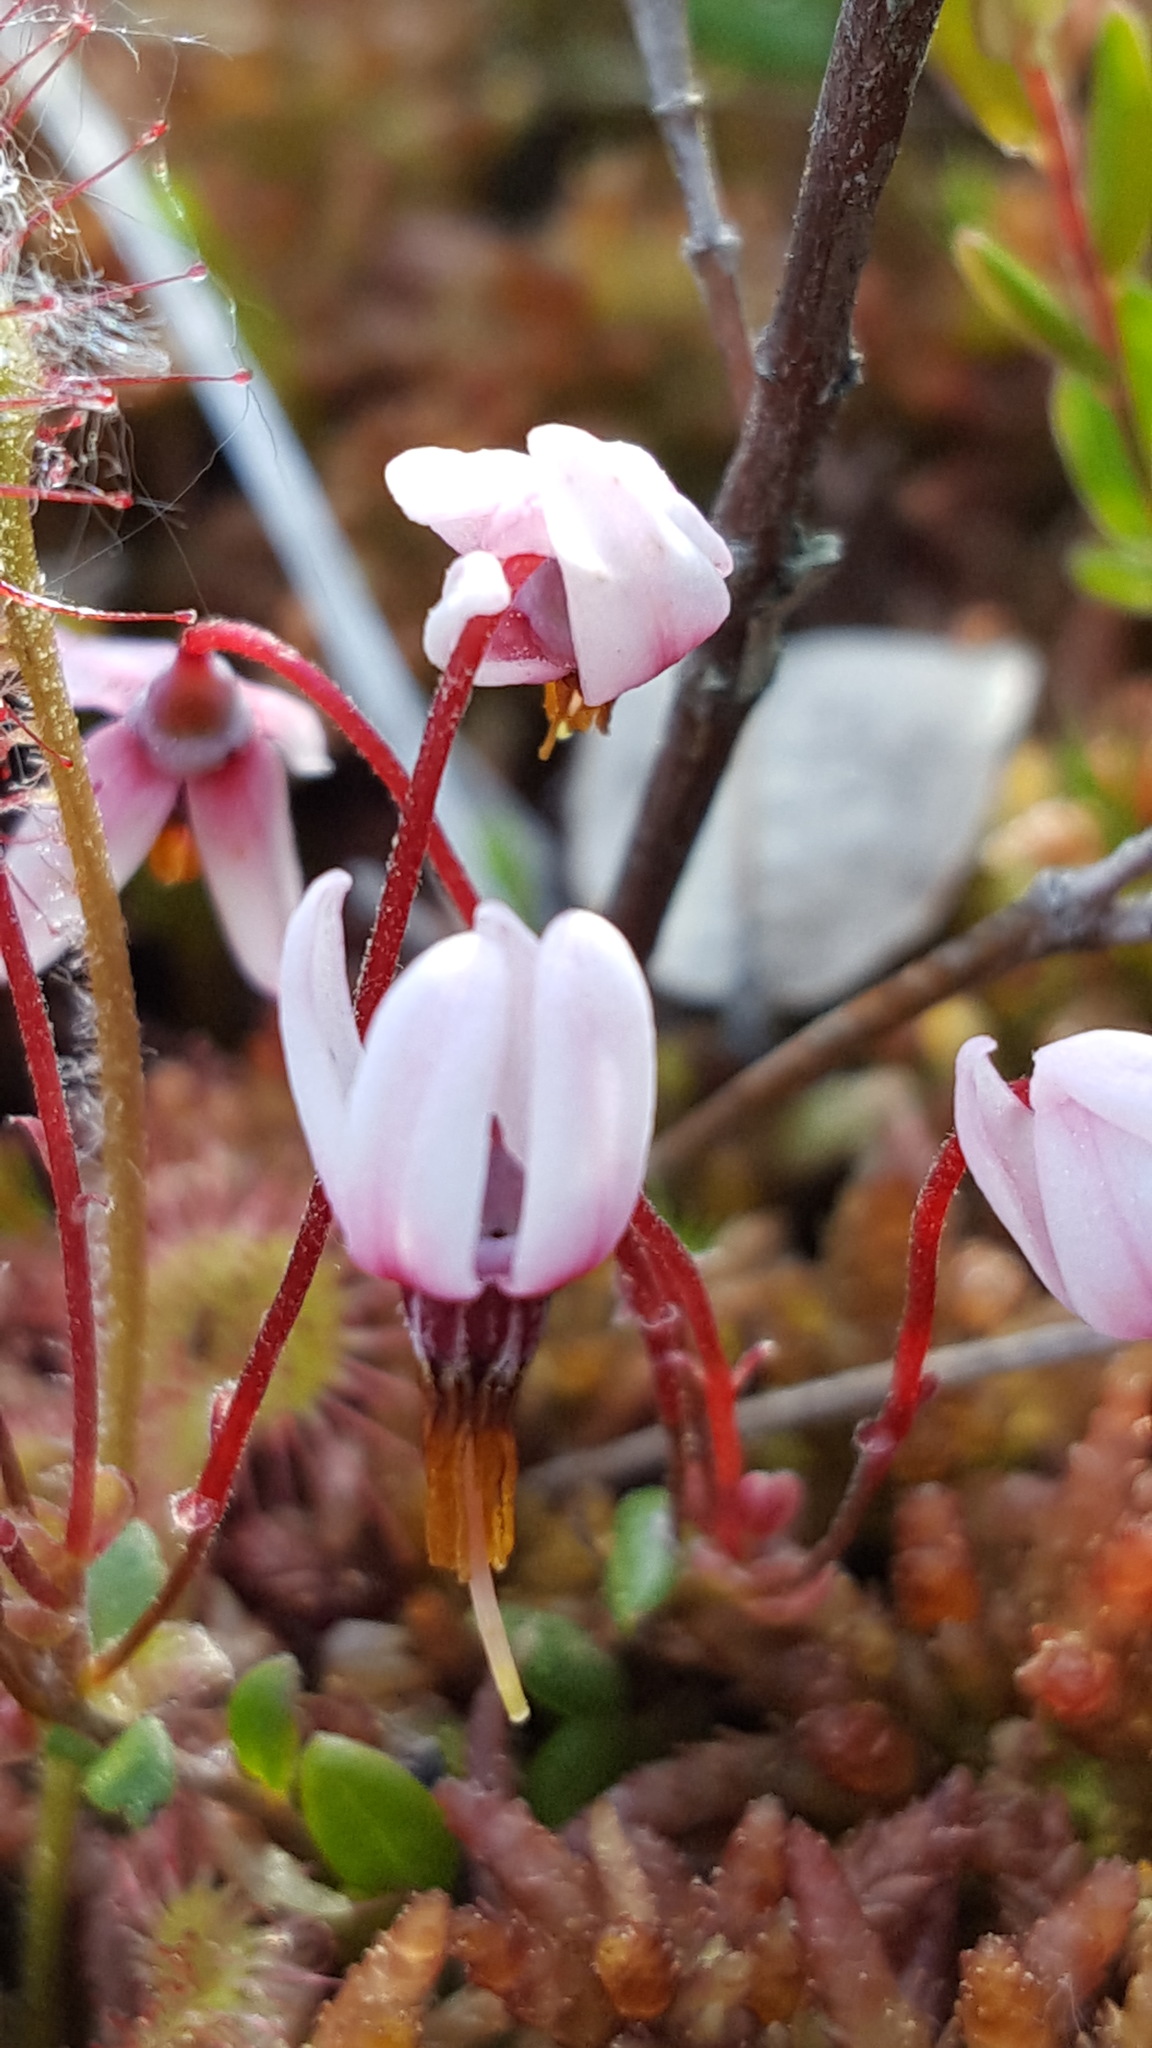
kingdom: Plantae
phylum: Tracheophyta
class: Magnoliopsida
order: Ericales
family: Ericaceae
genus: Vaccinium
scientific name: Vaccinium oxycoccos
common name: Cranberry
